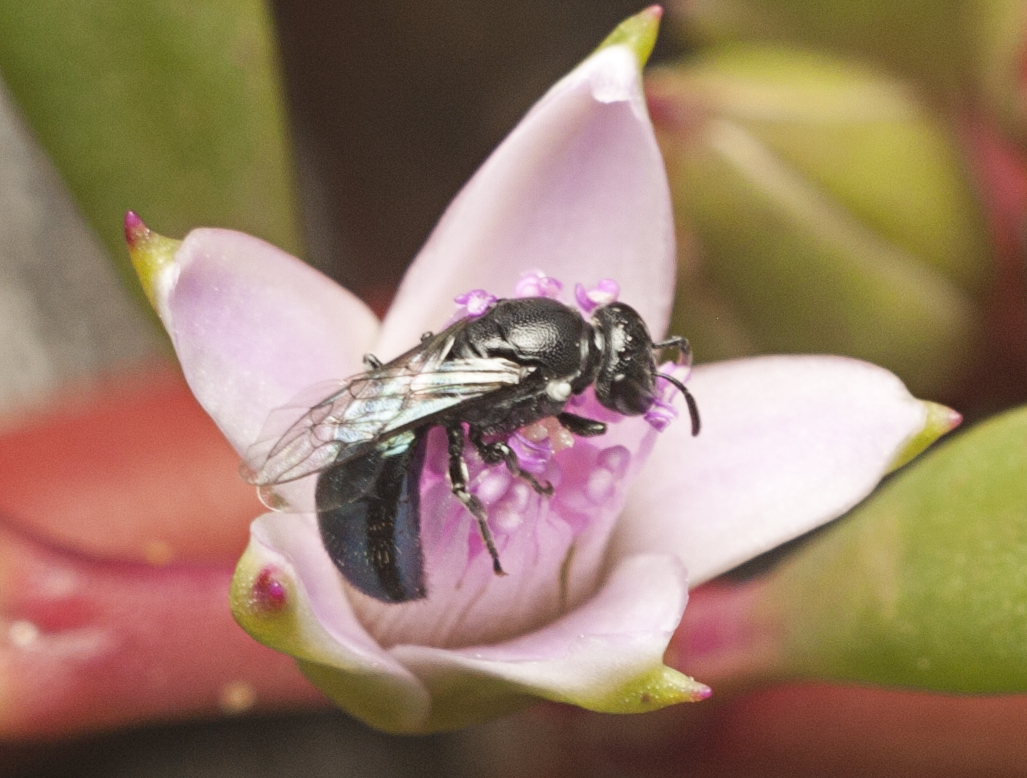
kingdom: Animalia
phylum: Arthropoda
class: Insecta
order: Hymenoptera
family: Colletidae
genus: Hylaeus
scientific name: Hylaeus cyaneomicans
